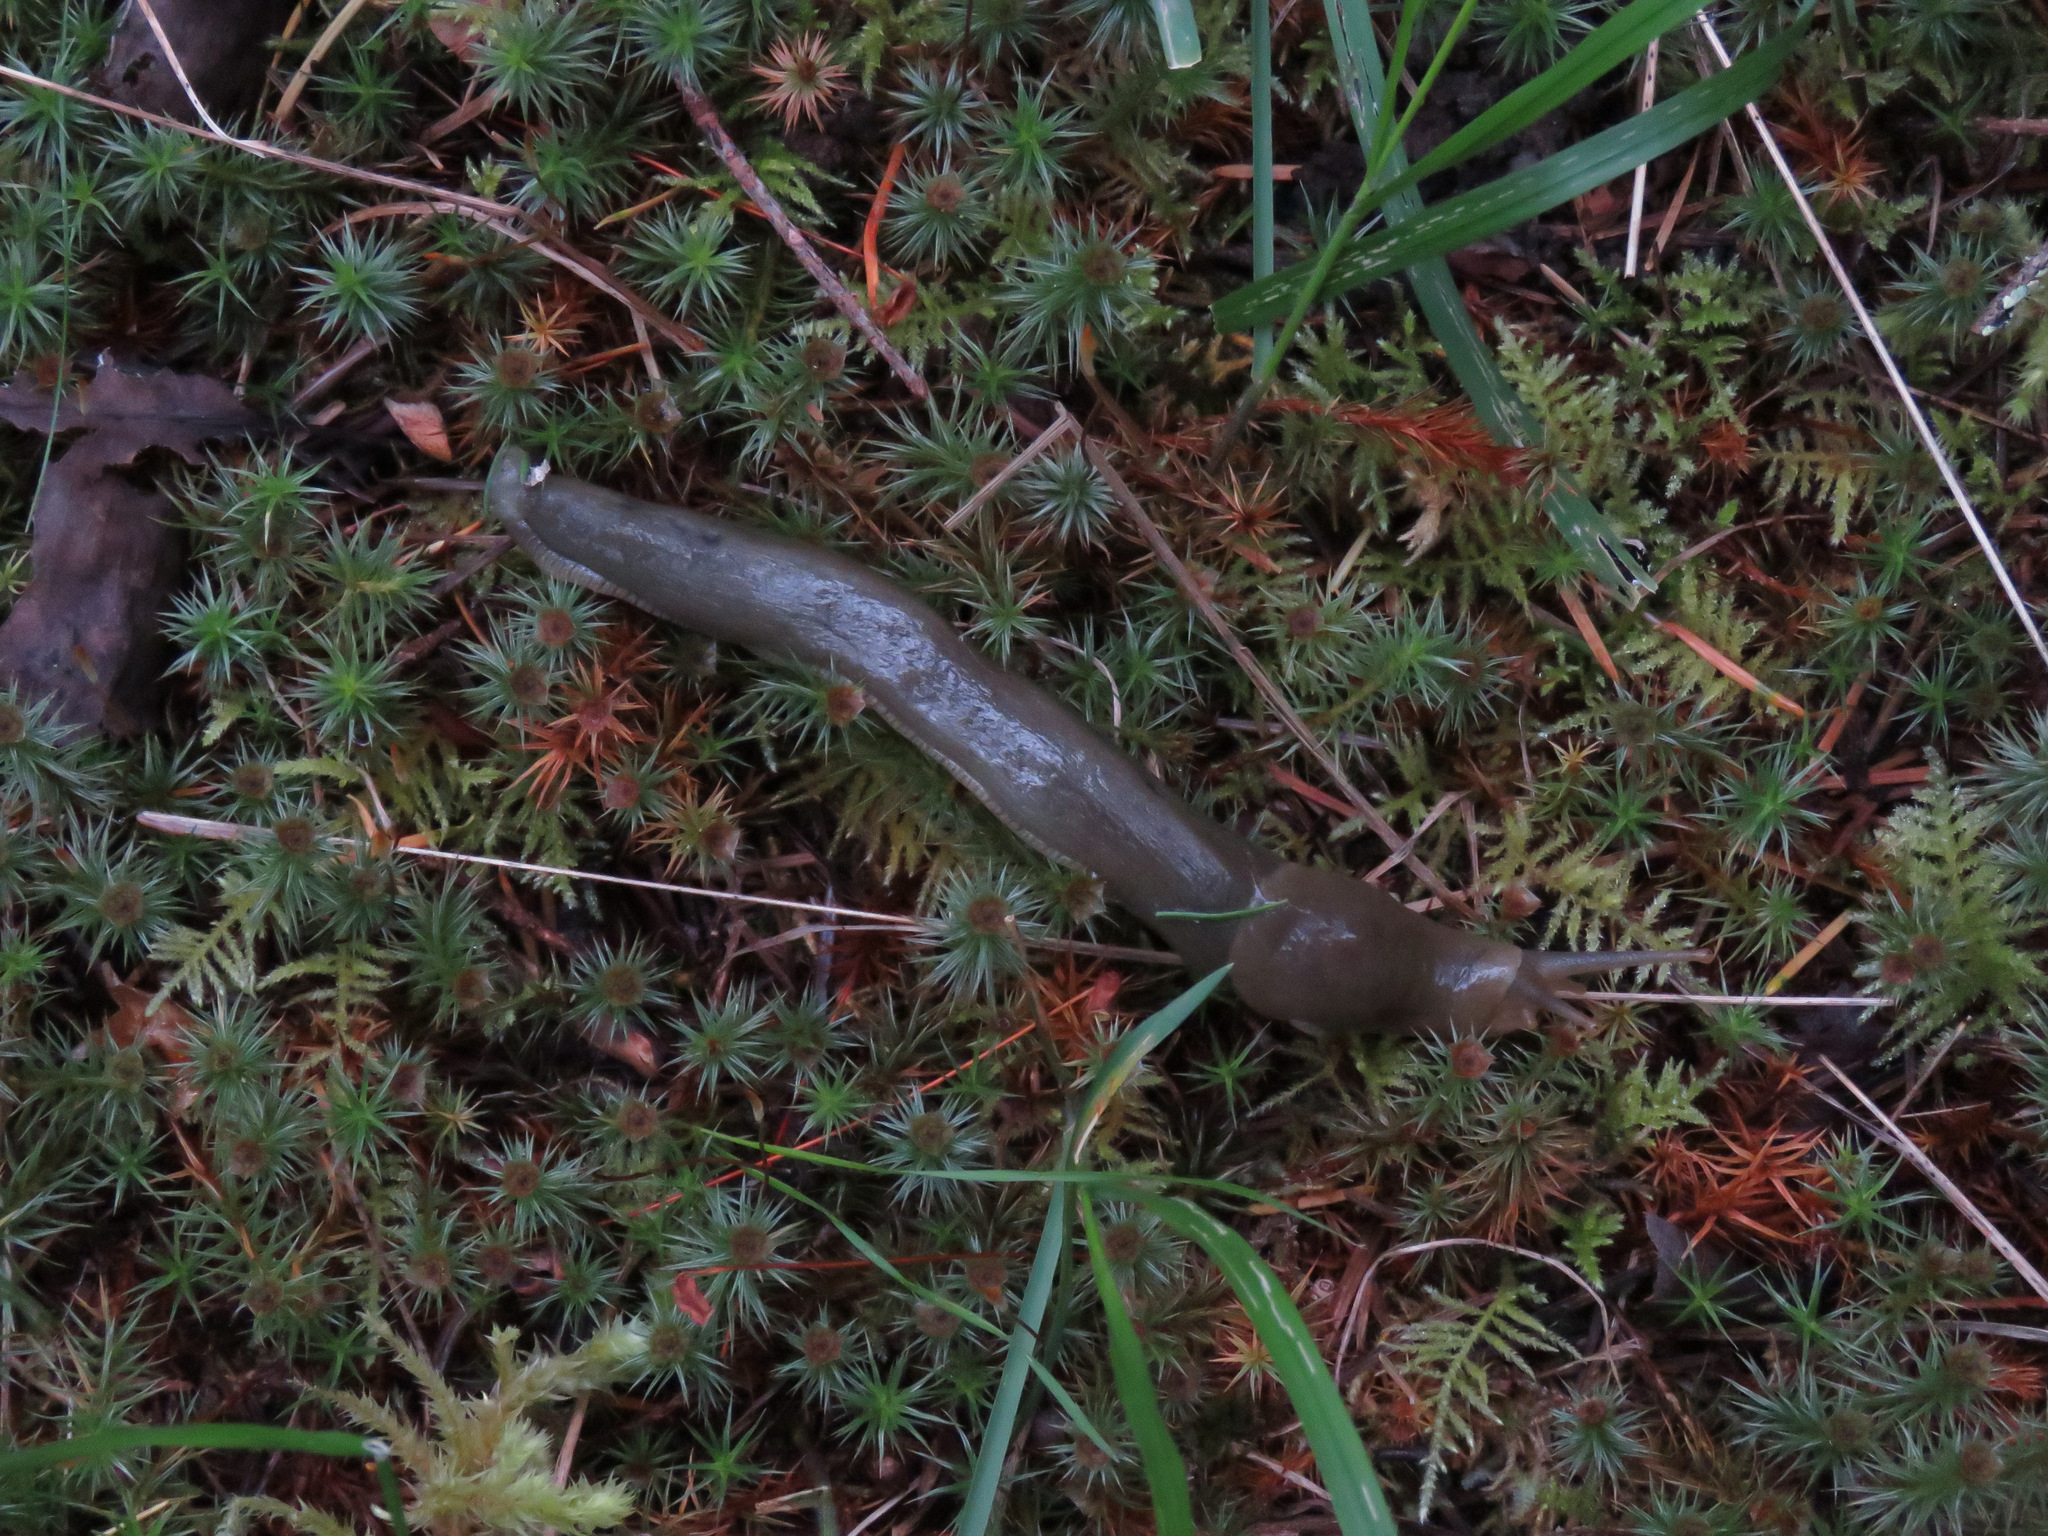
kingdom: Animalia
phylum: Mollusca
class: Gastropoda
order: Stylommatophora
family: Ariolimacidae
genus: Ariolimax
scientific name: Ariolimax columbianus
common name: Pacific banana slug
